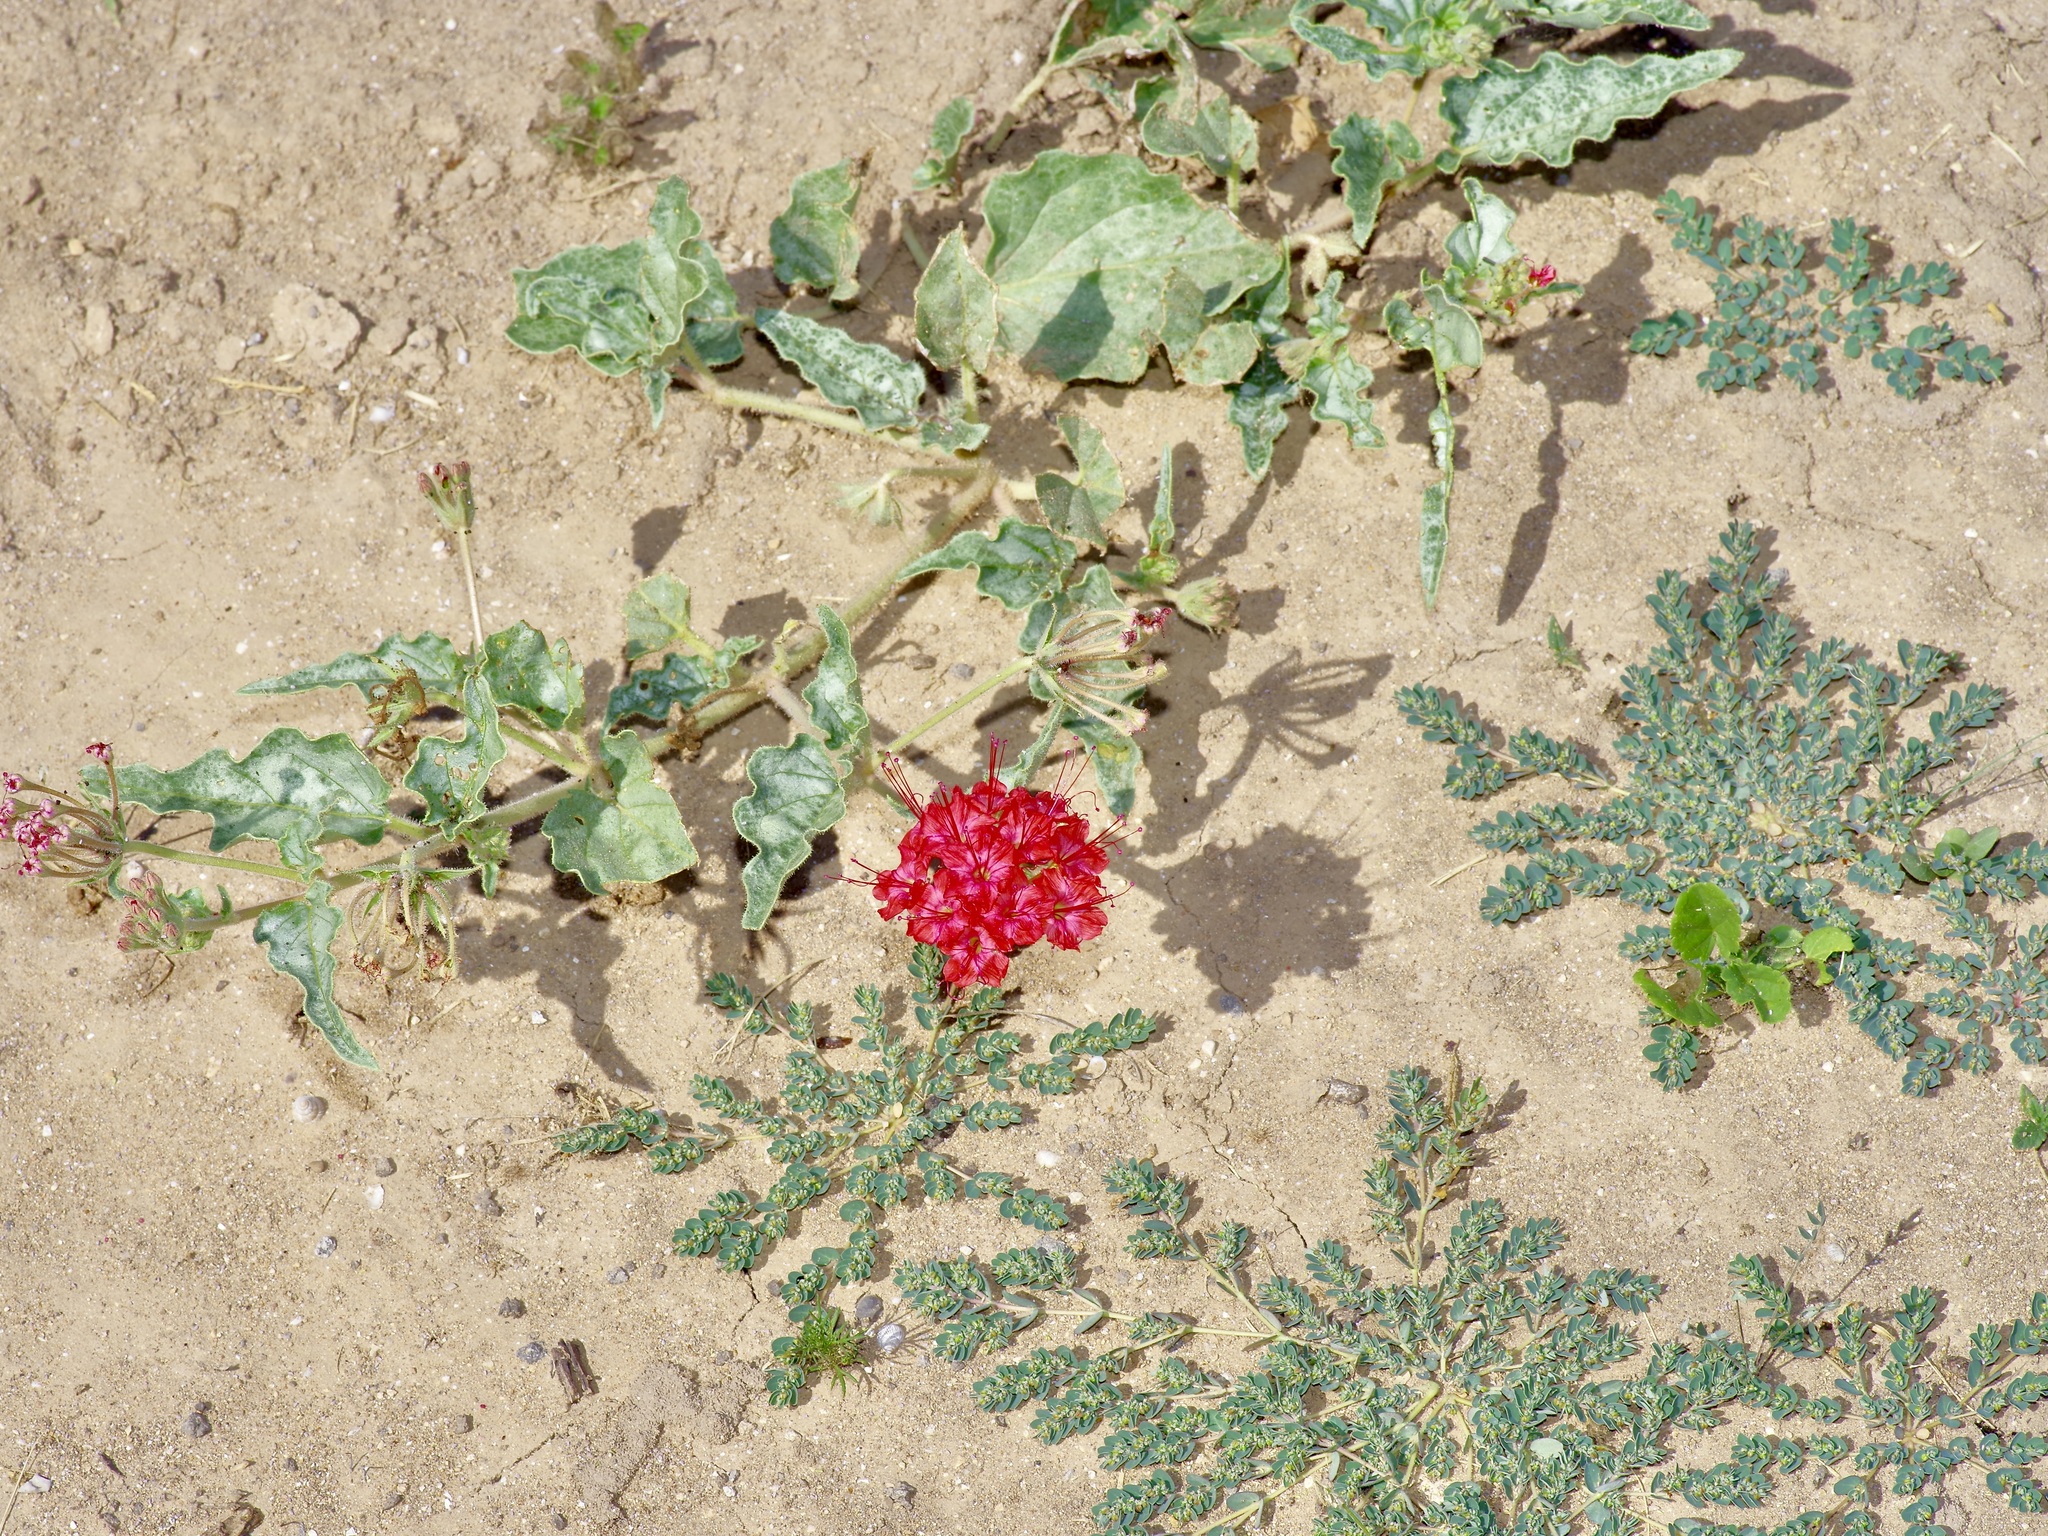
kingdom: Plantae
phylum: Tracheophyta
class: Magnoliopsida
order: Caryophyllales
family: Nyctaginaceae
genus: Nyctaginia
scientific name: Nyctaginia capitata
